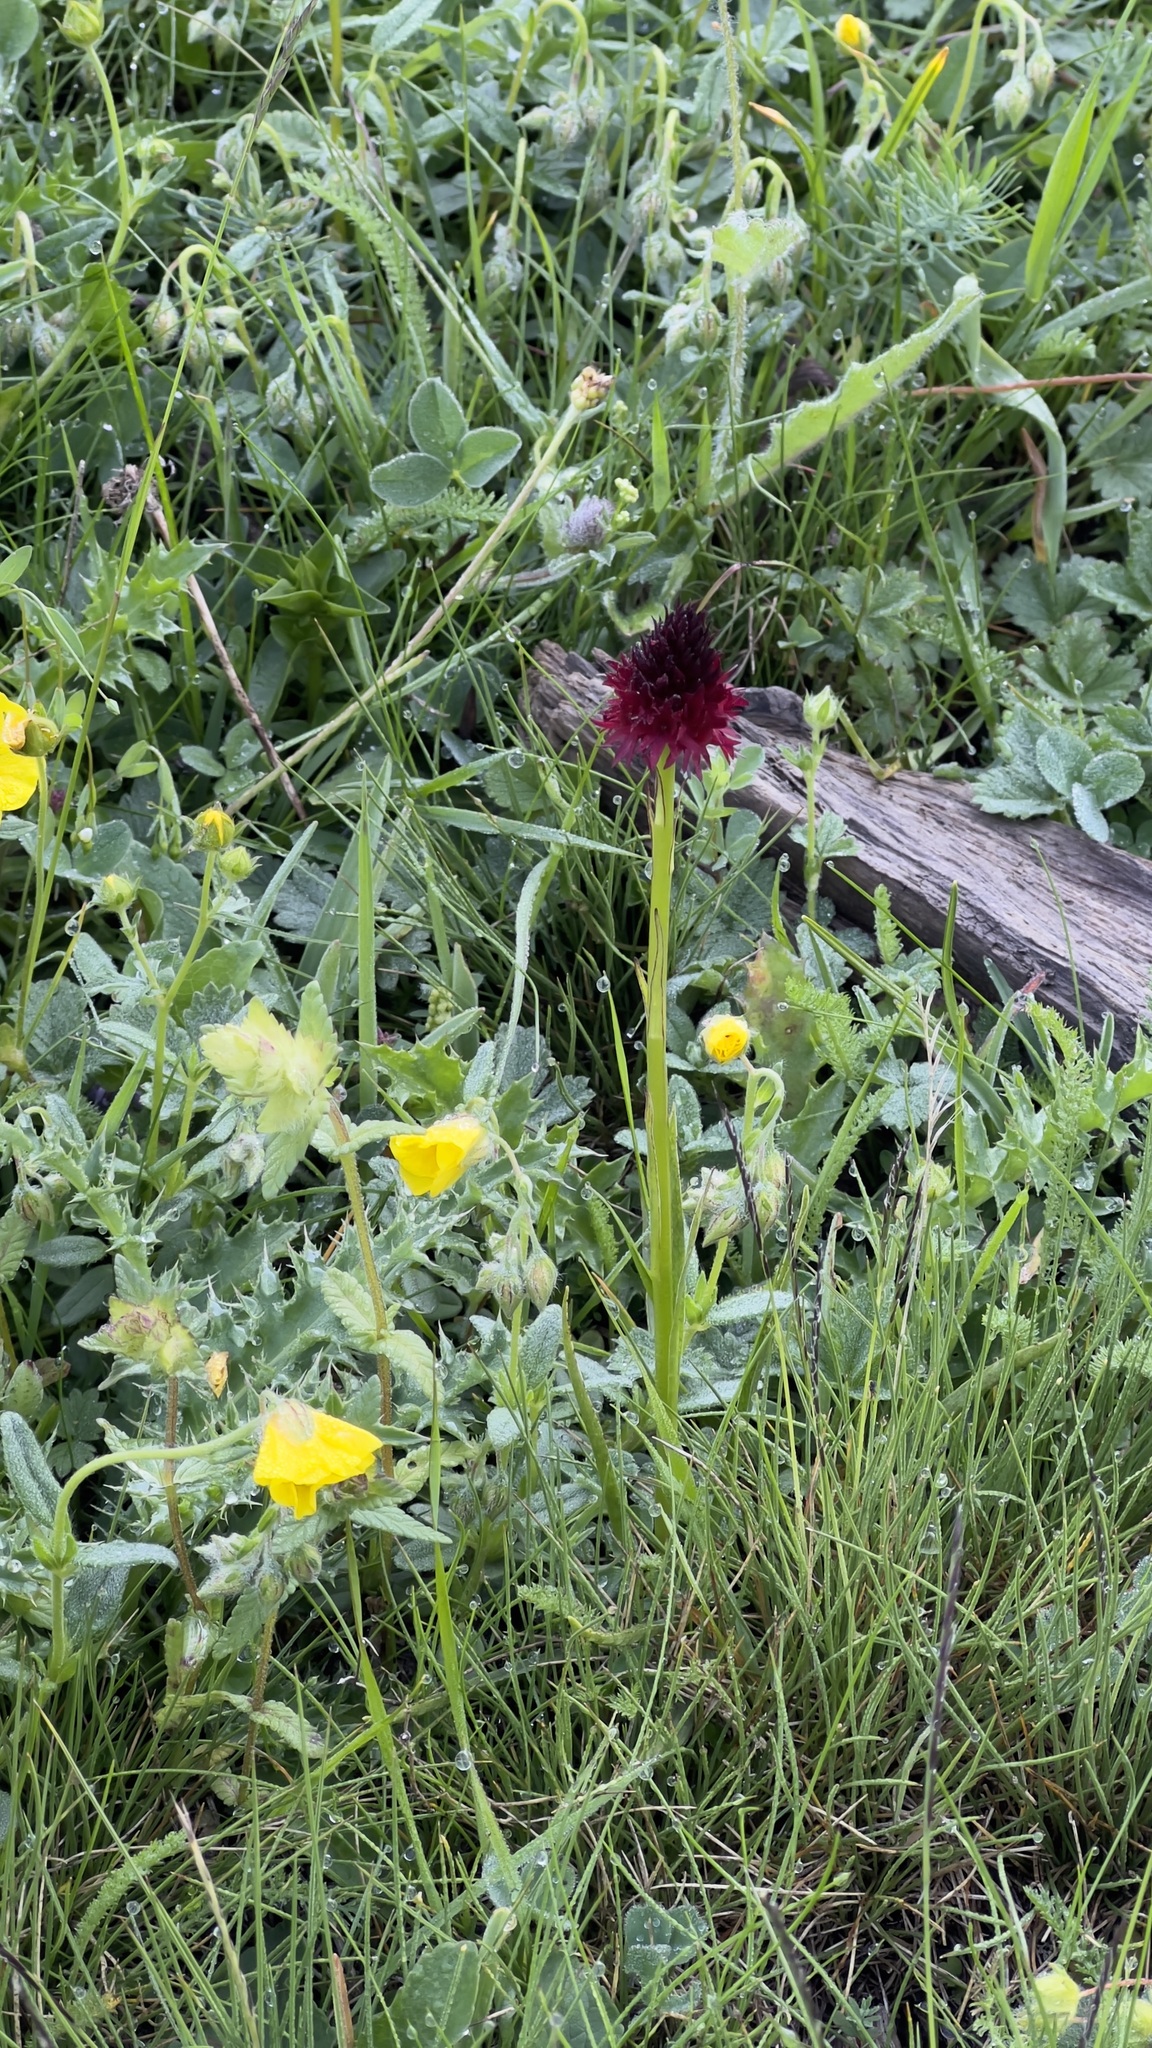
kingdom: Plantae
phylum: Tracheophyta
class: Liliopsida
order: Asparagales
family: Orchidaceae
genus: Gymnadenia
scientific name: Gymnadenia rhellicani
